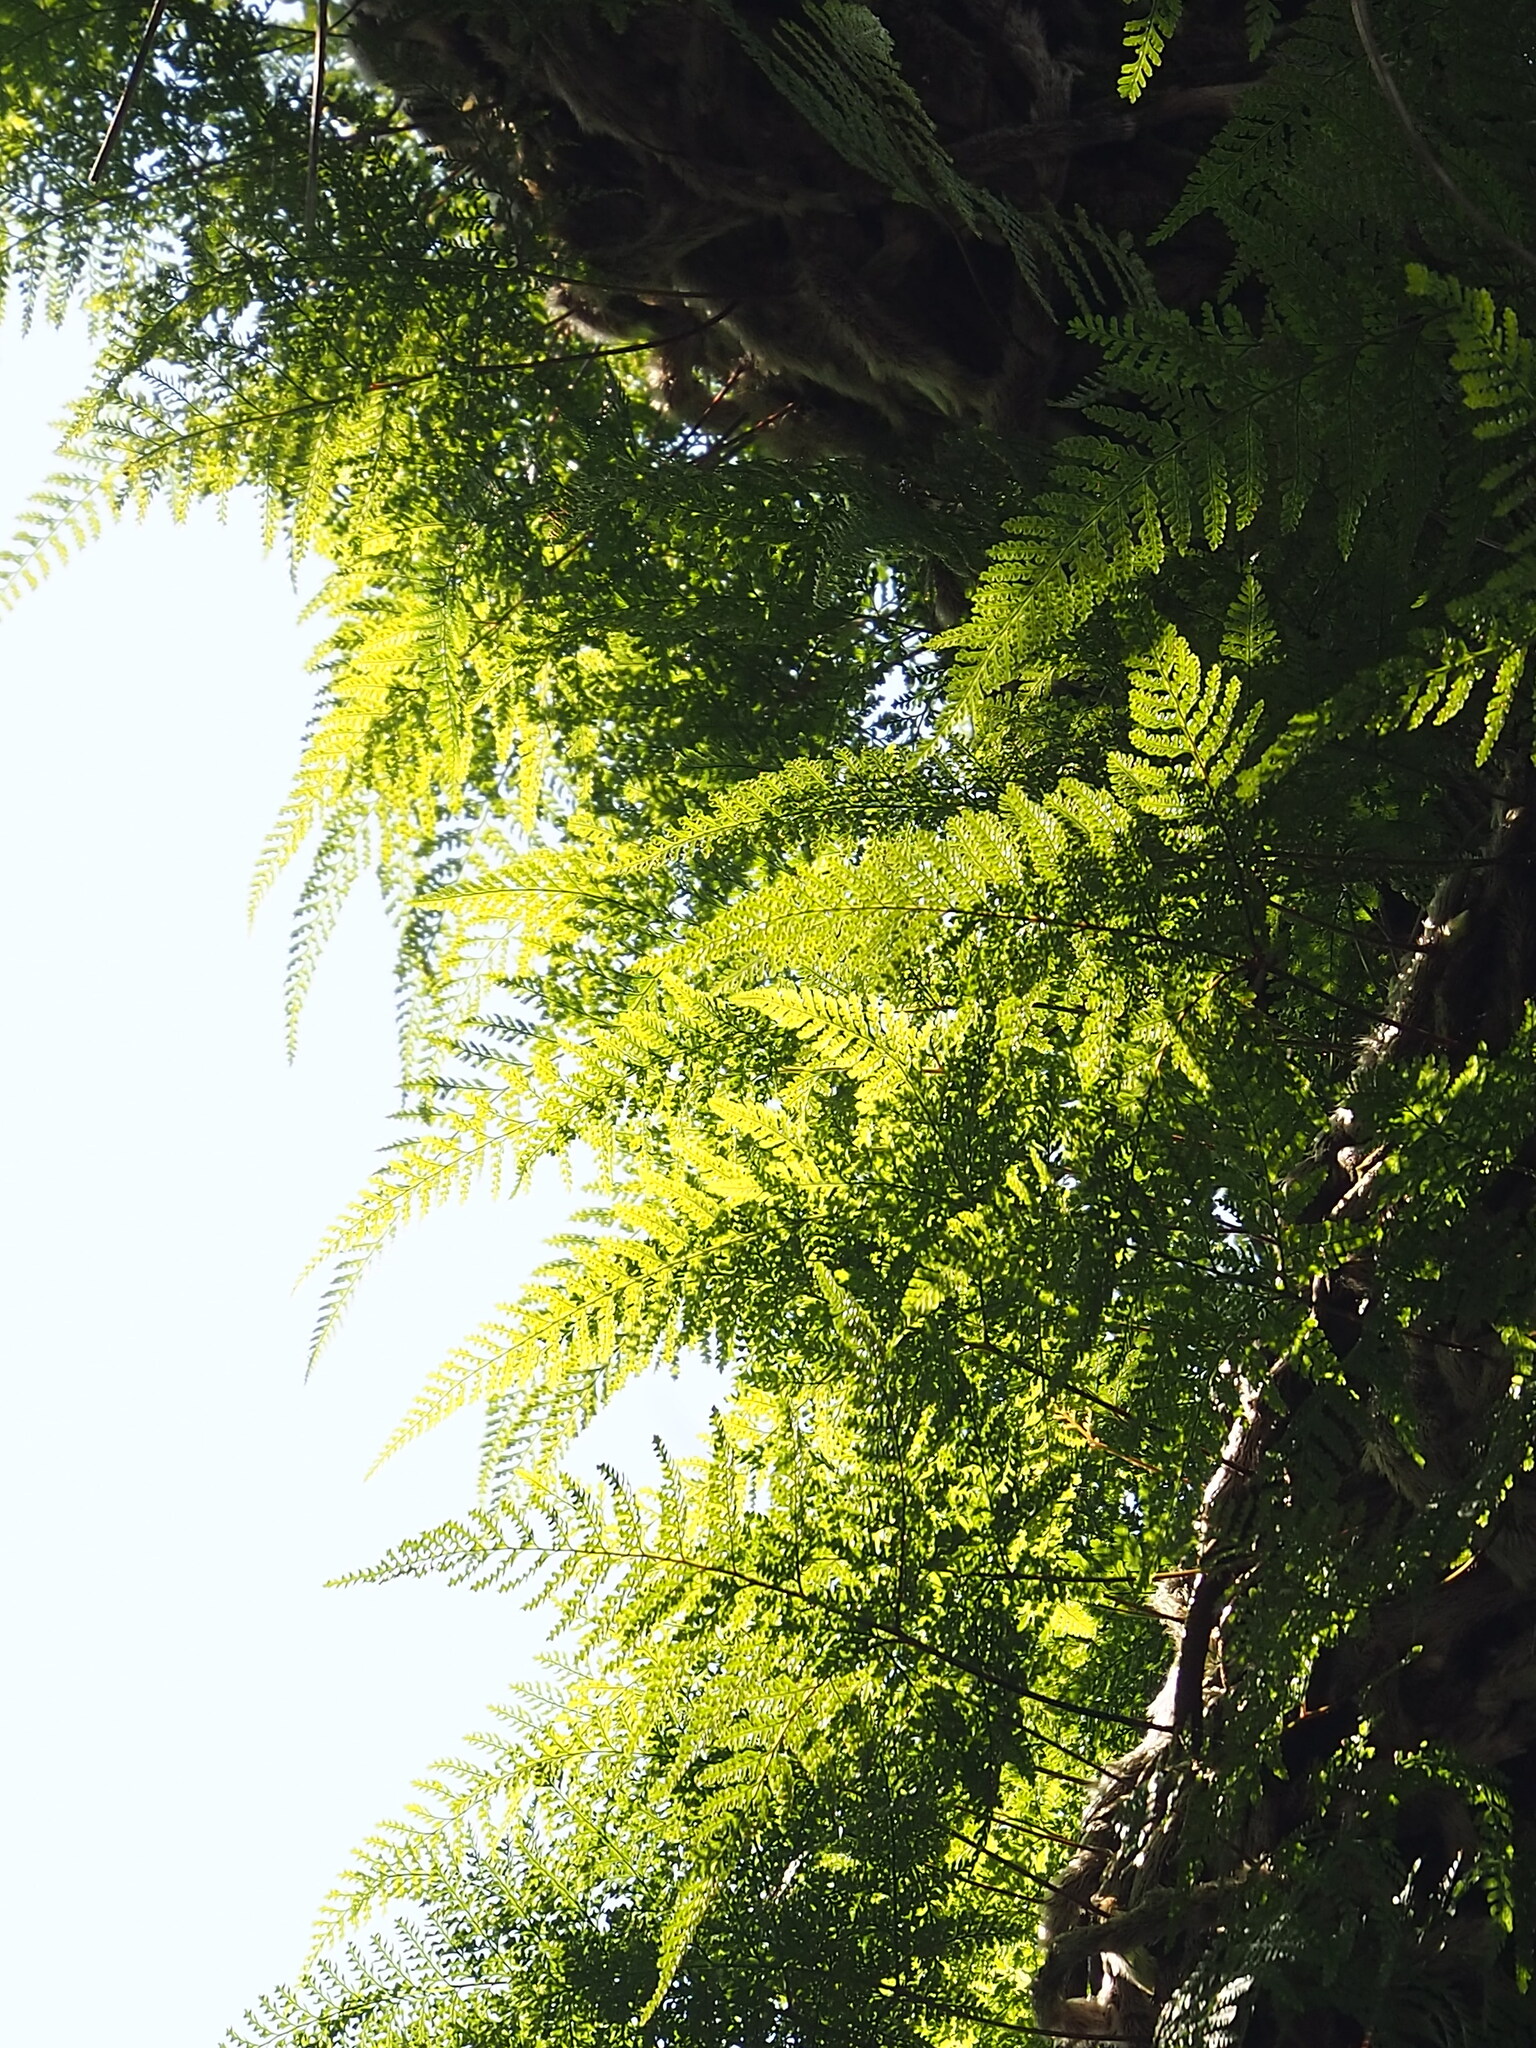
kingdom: Plantae
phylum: Tracheophyta
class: Polypodiopsida
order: Polypodiales
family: Davalliaceae
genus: Davallia
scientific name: Davallia griffithiana
